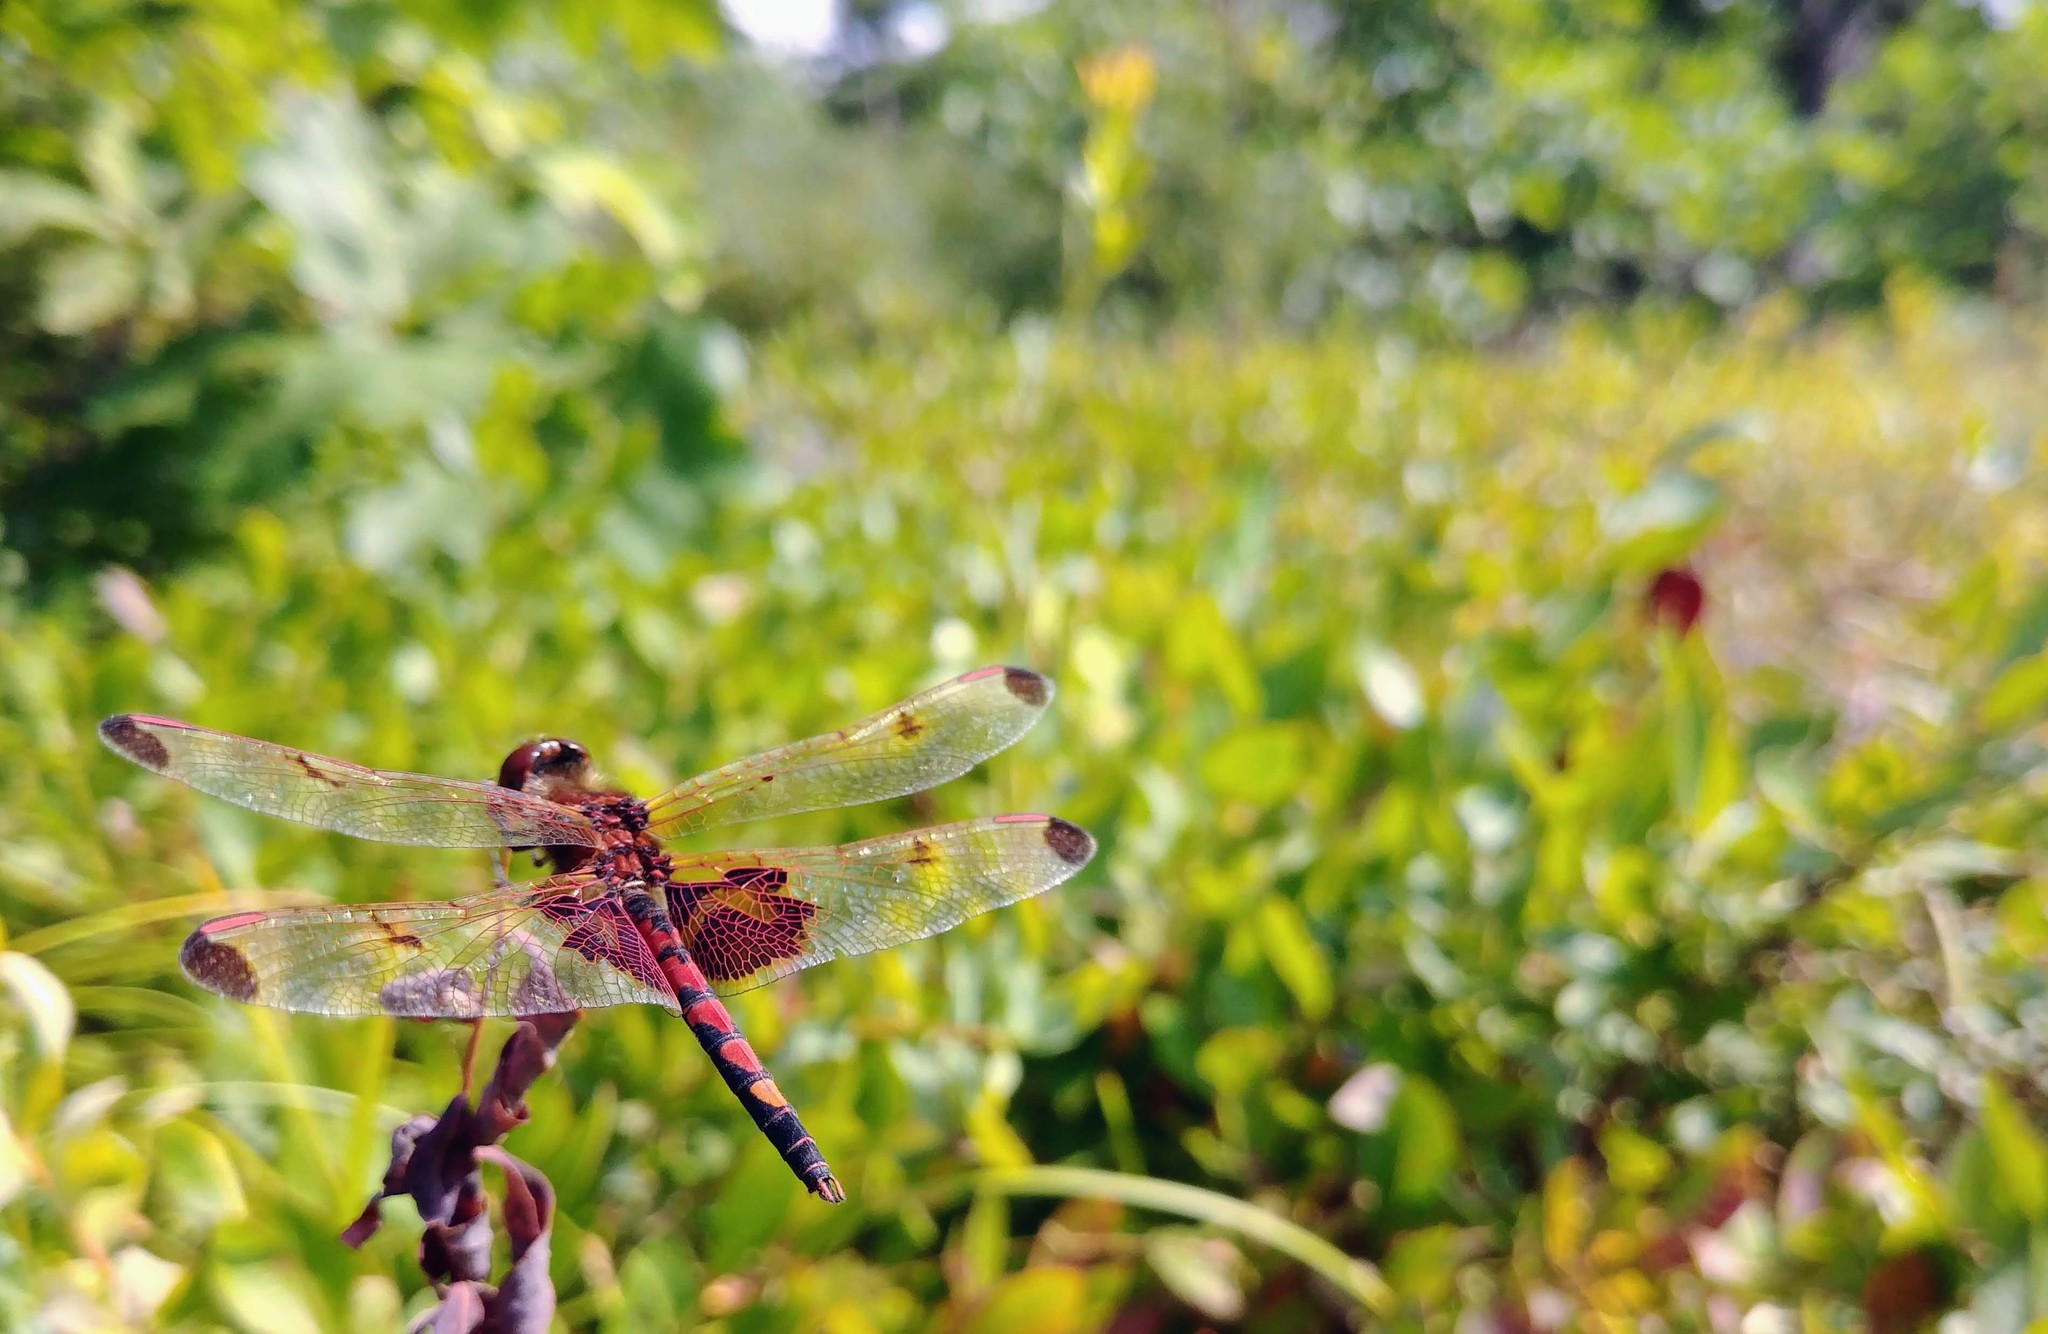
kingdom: Animalia
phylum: Arthropoda
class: Insecta
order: Odonata
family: Libellulidae
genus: Celithemis
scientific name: Celithemis elisa
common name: Calico pennant
